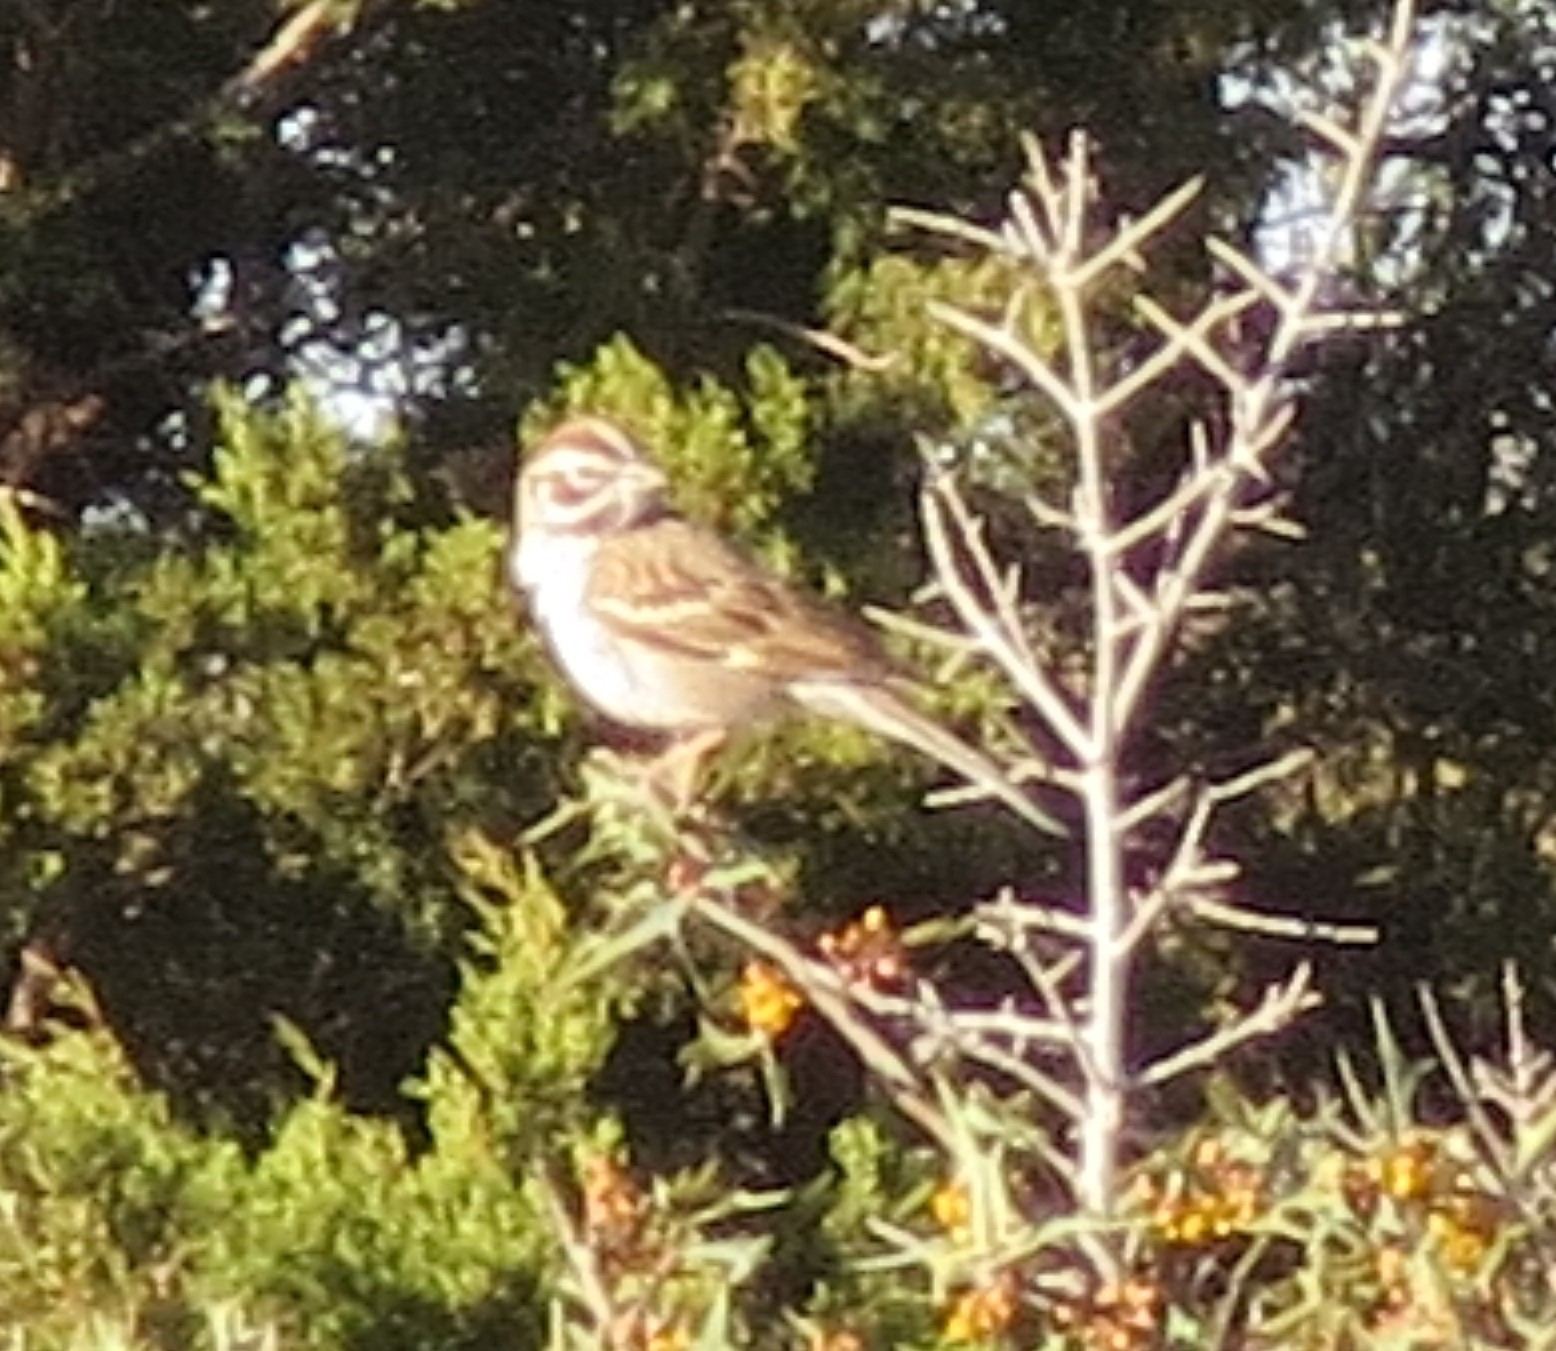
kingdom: Animalia
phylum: Chordata
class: Aves
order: Passeriformes
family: Passerellidae
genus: Chondestes
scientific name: Chondestes grammacus
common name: Lark sparrow
